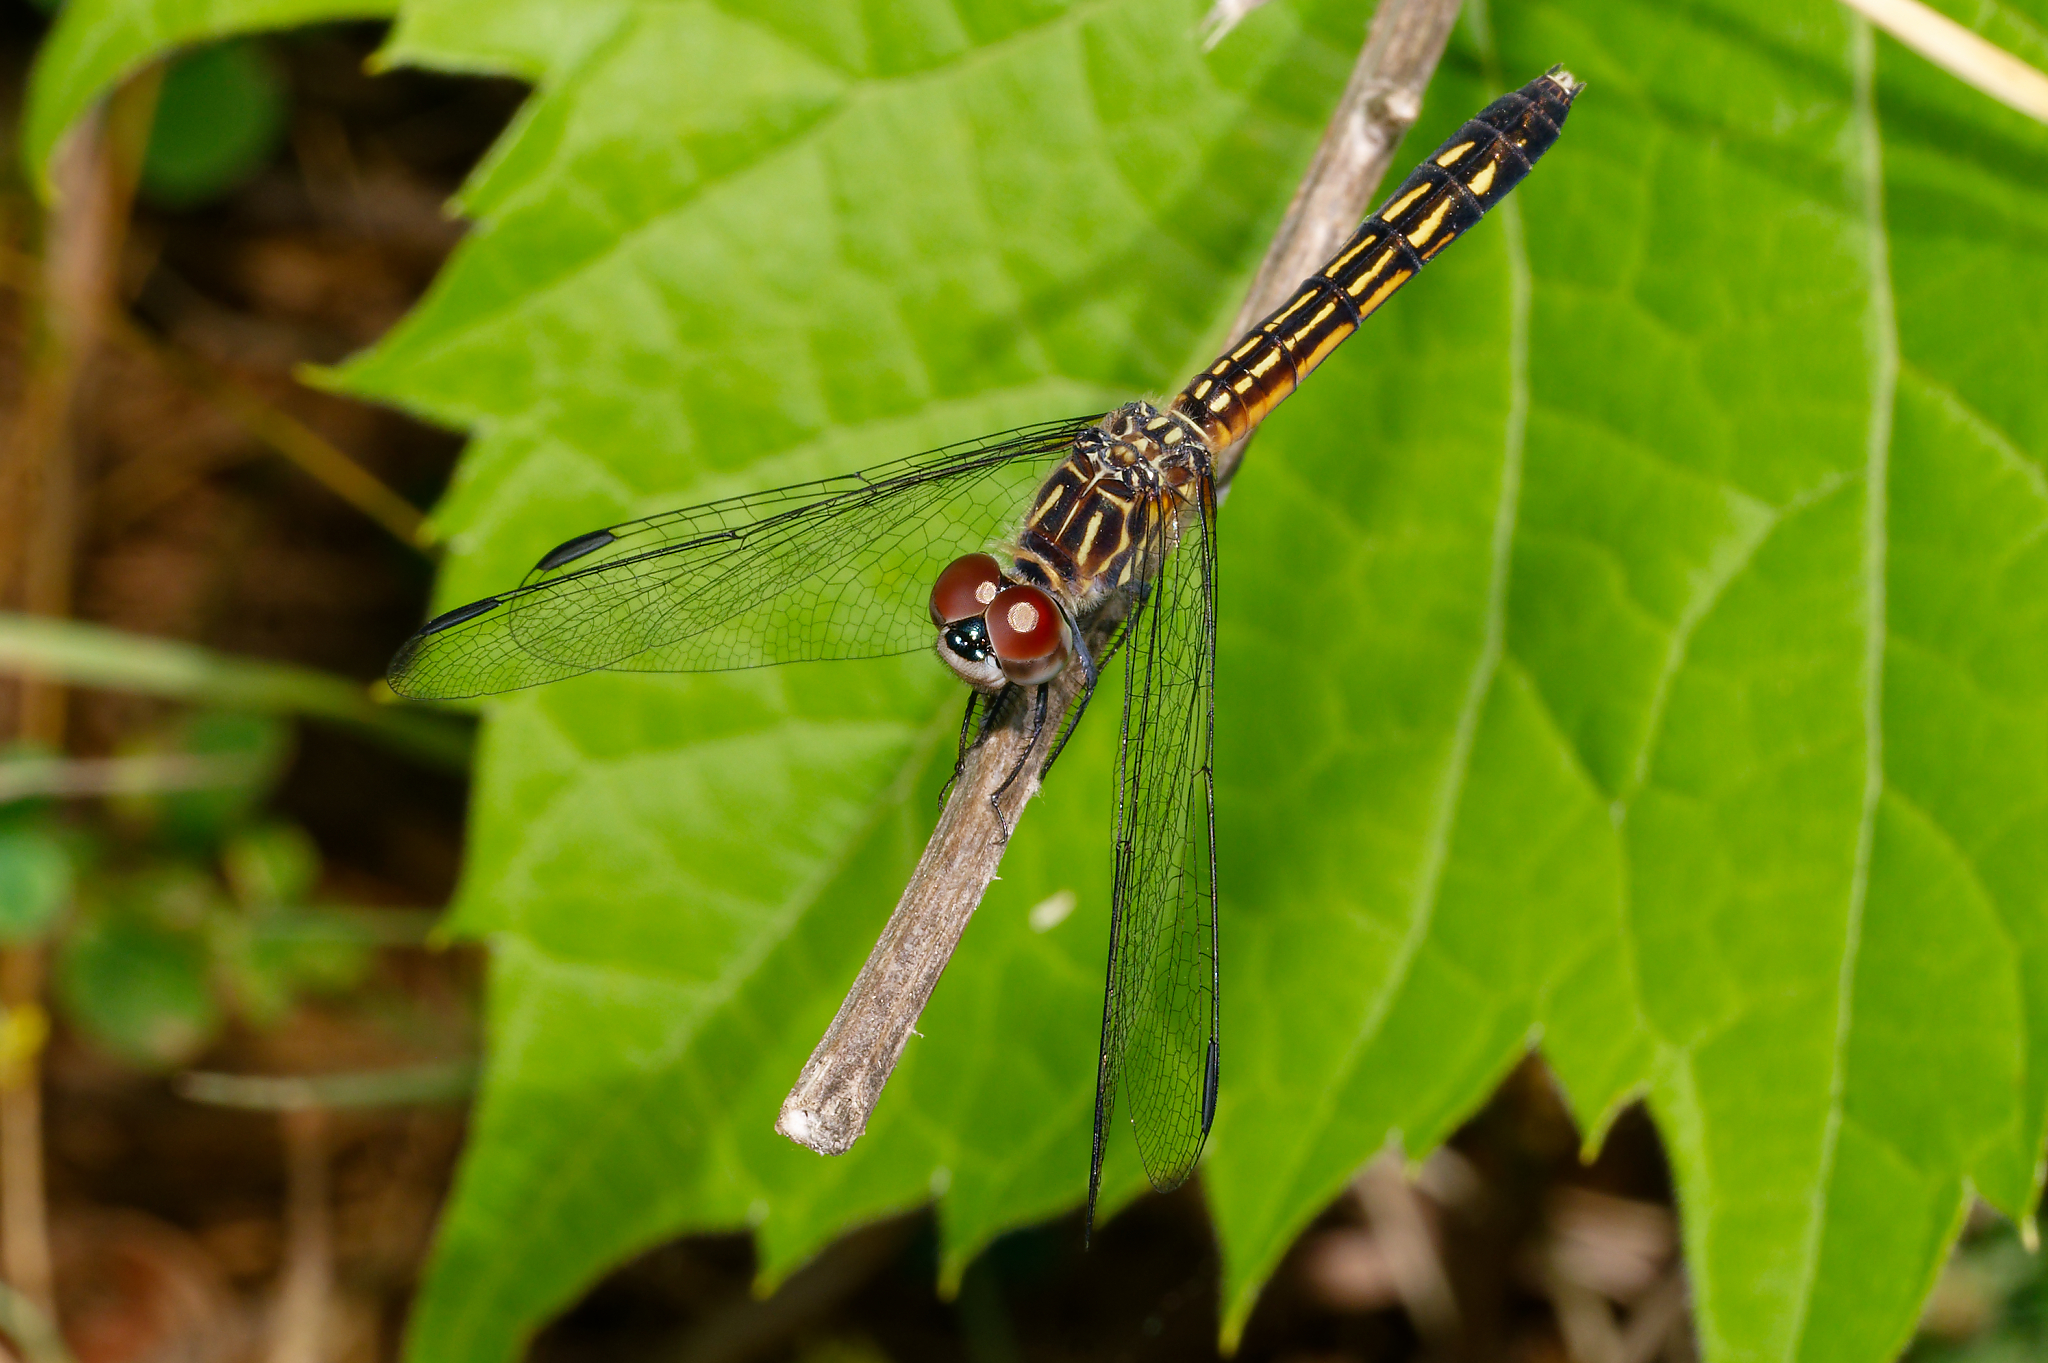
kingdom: Animalia
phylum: Arthropoda
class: Insecta
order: Odonata
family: Libellulidae
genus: Pachydiplax
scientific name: Pachydiplax longipennis
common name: Blue dasher
